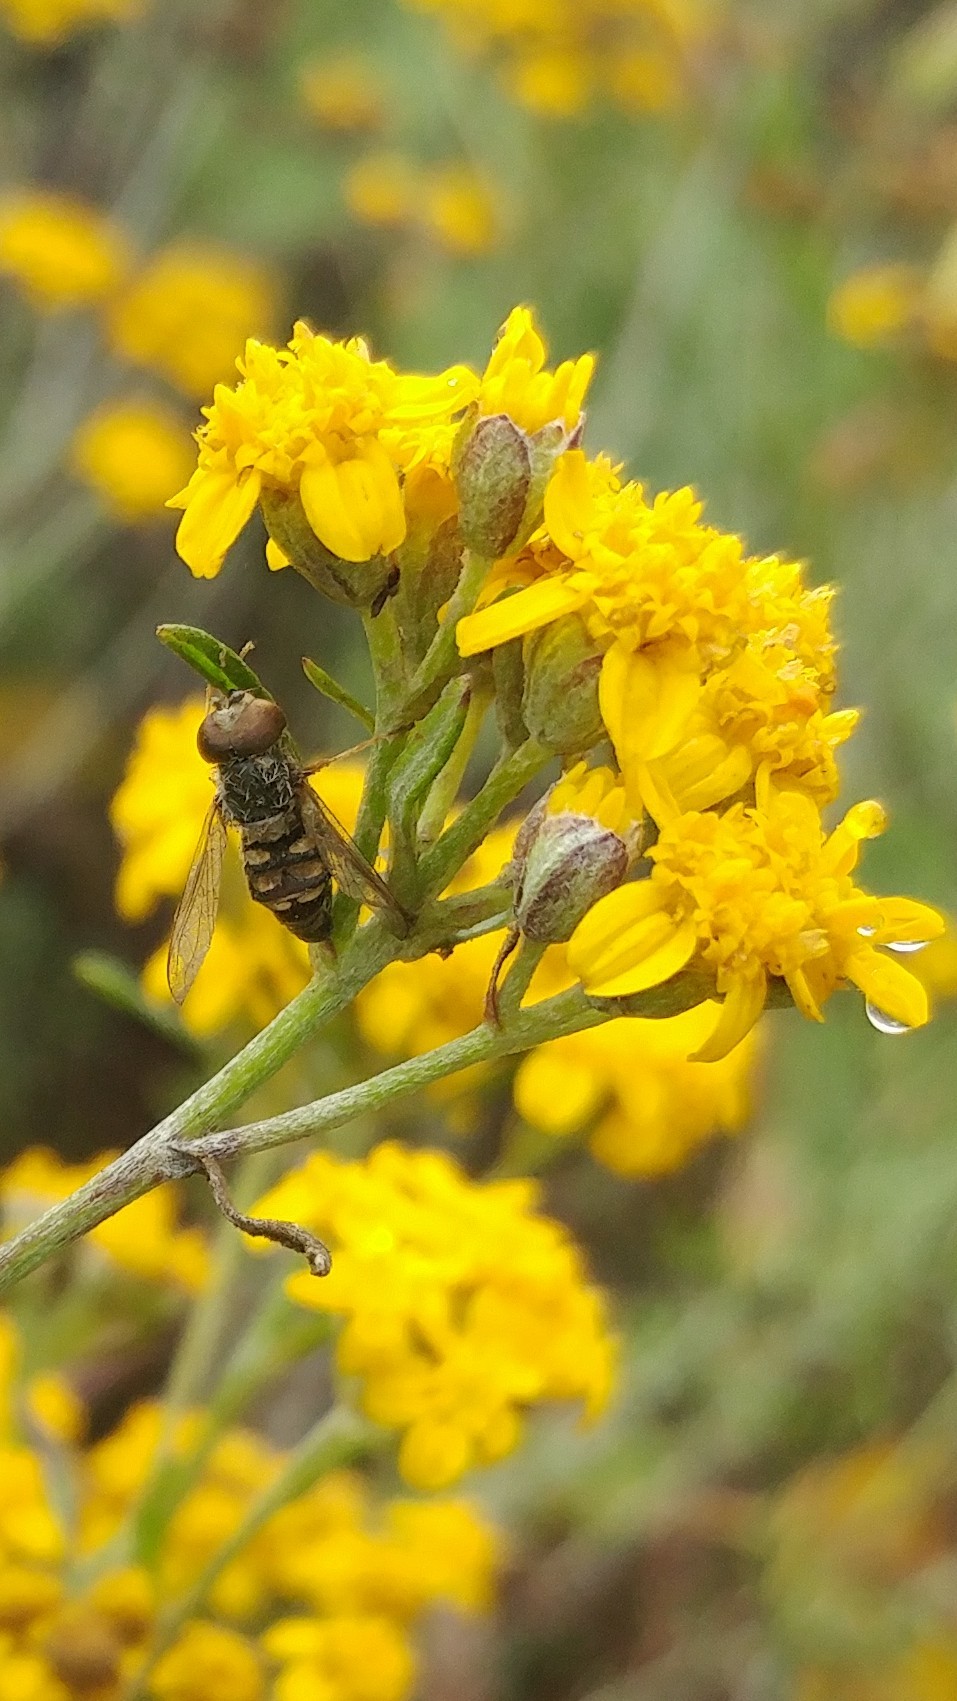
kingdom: Fungi
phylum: Entomophthoromycota
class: Entomophthoromycetes
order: Entomophthorales
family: Entomophthoraceae
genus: Entomophthora
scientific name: Entomophthora
